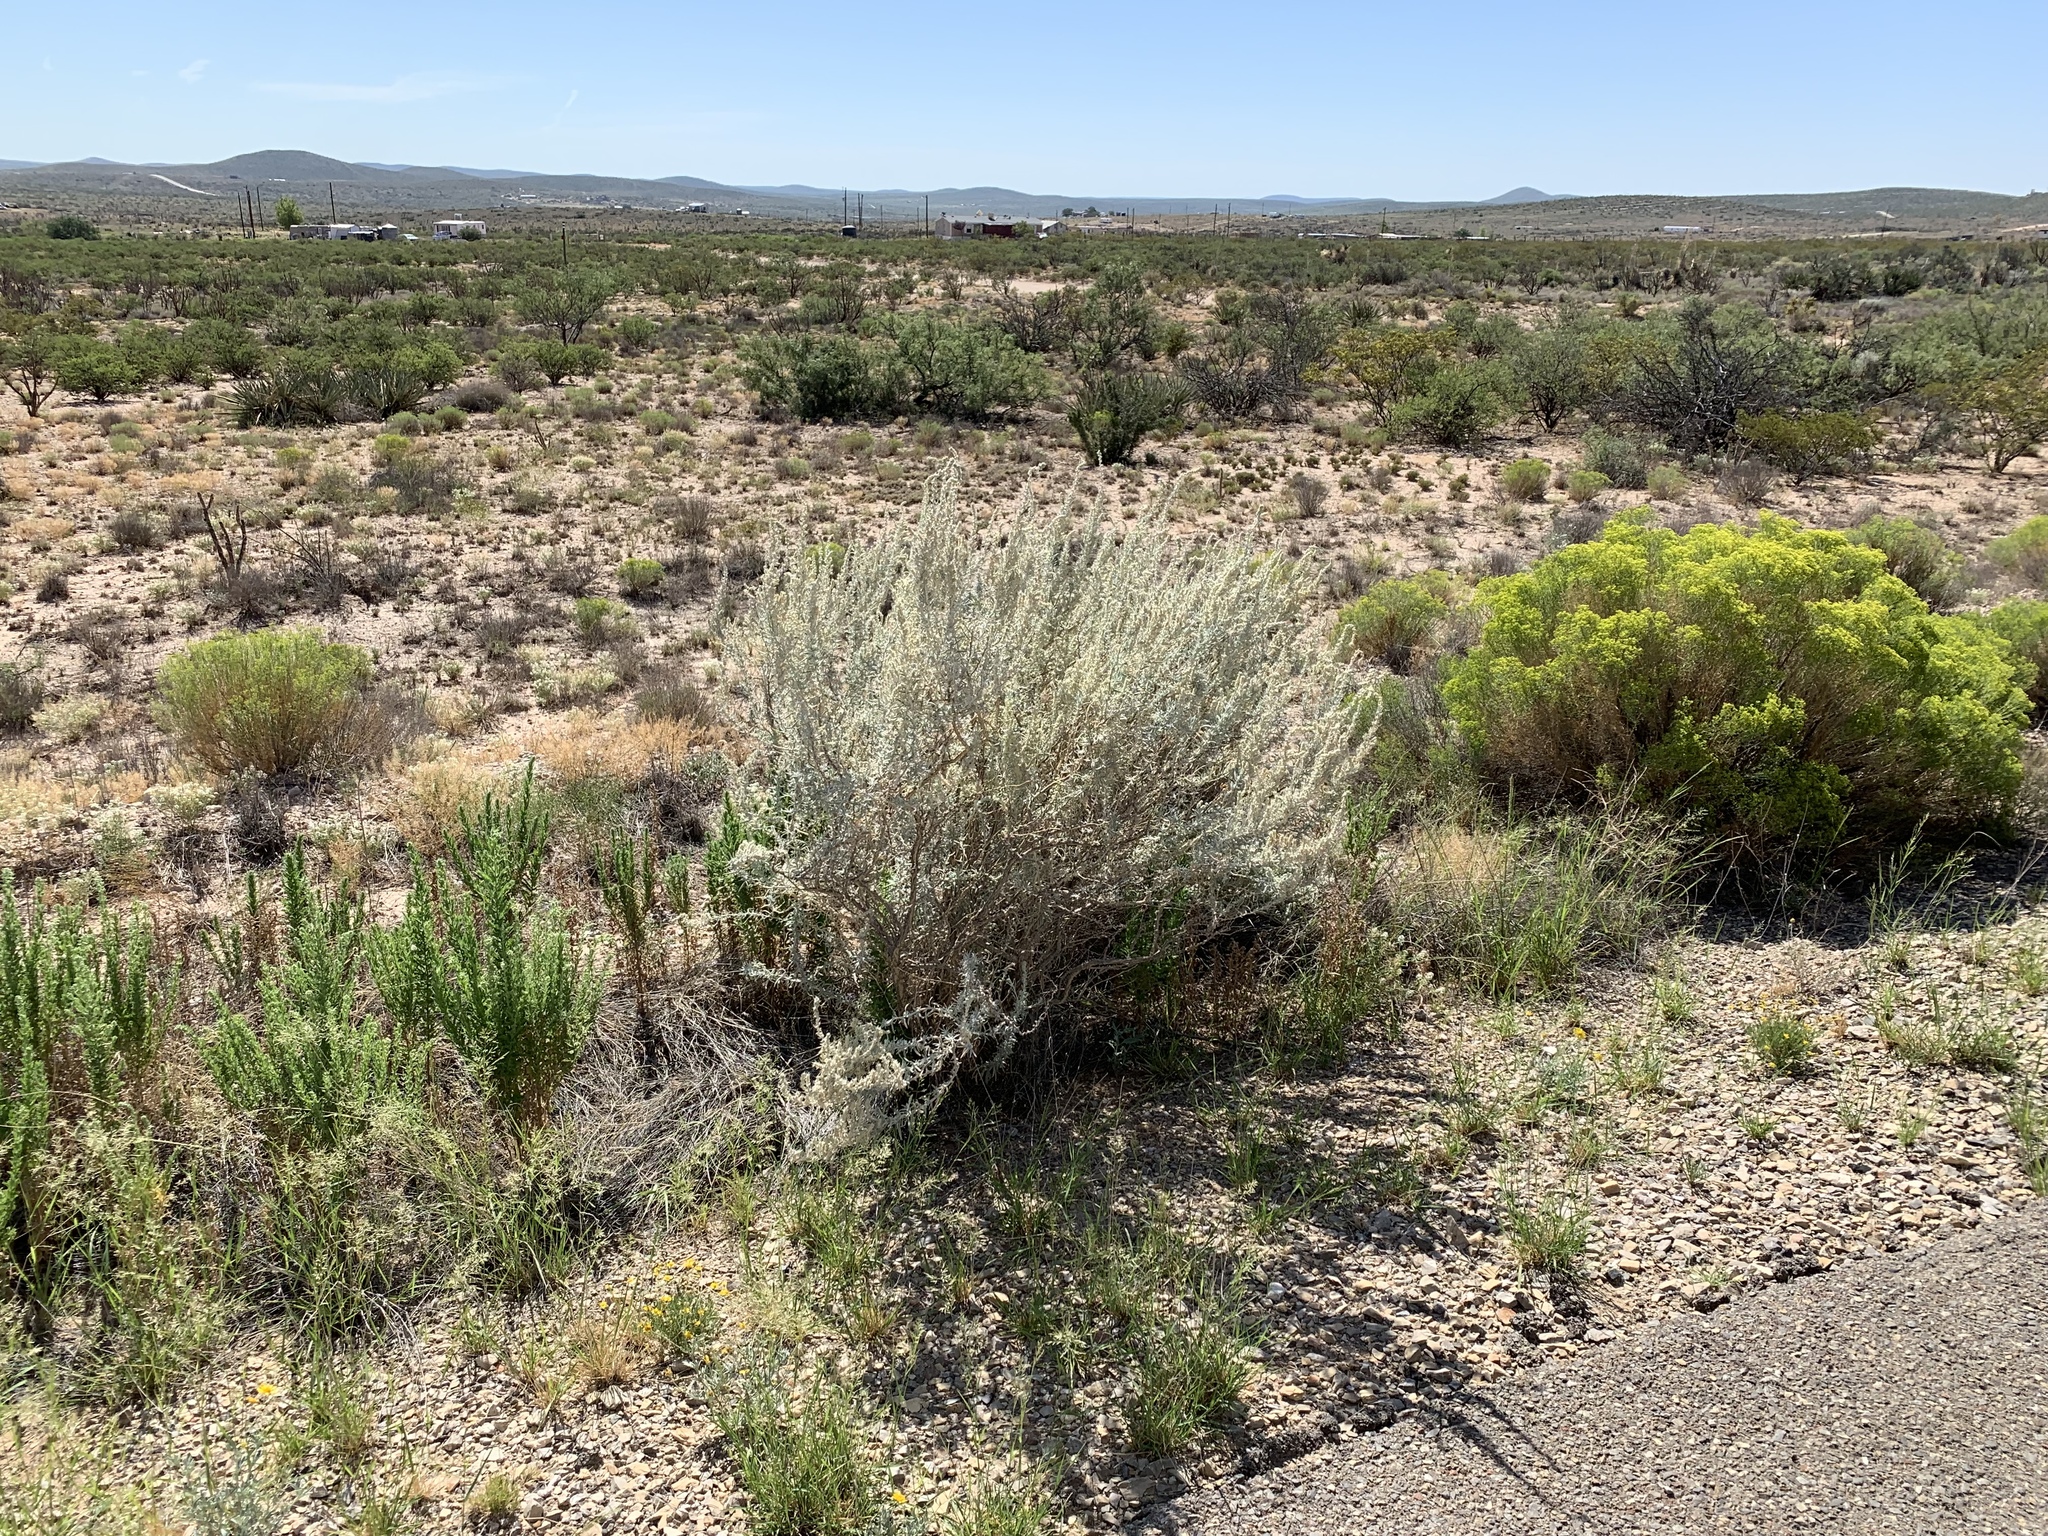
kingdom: Plantae
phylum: Tracheophyta
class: Magnoliopsida
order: Caryophyllales
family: Amaranthaceae
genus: Krascheninnikovia
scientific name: Krascheninnikovia lanata
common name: Winterfat
